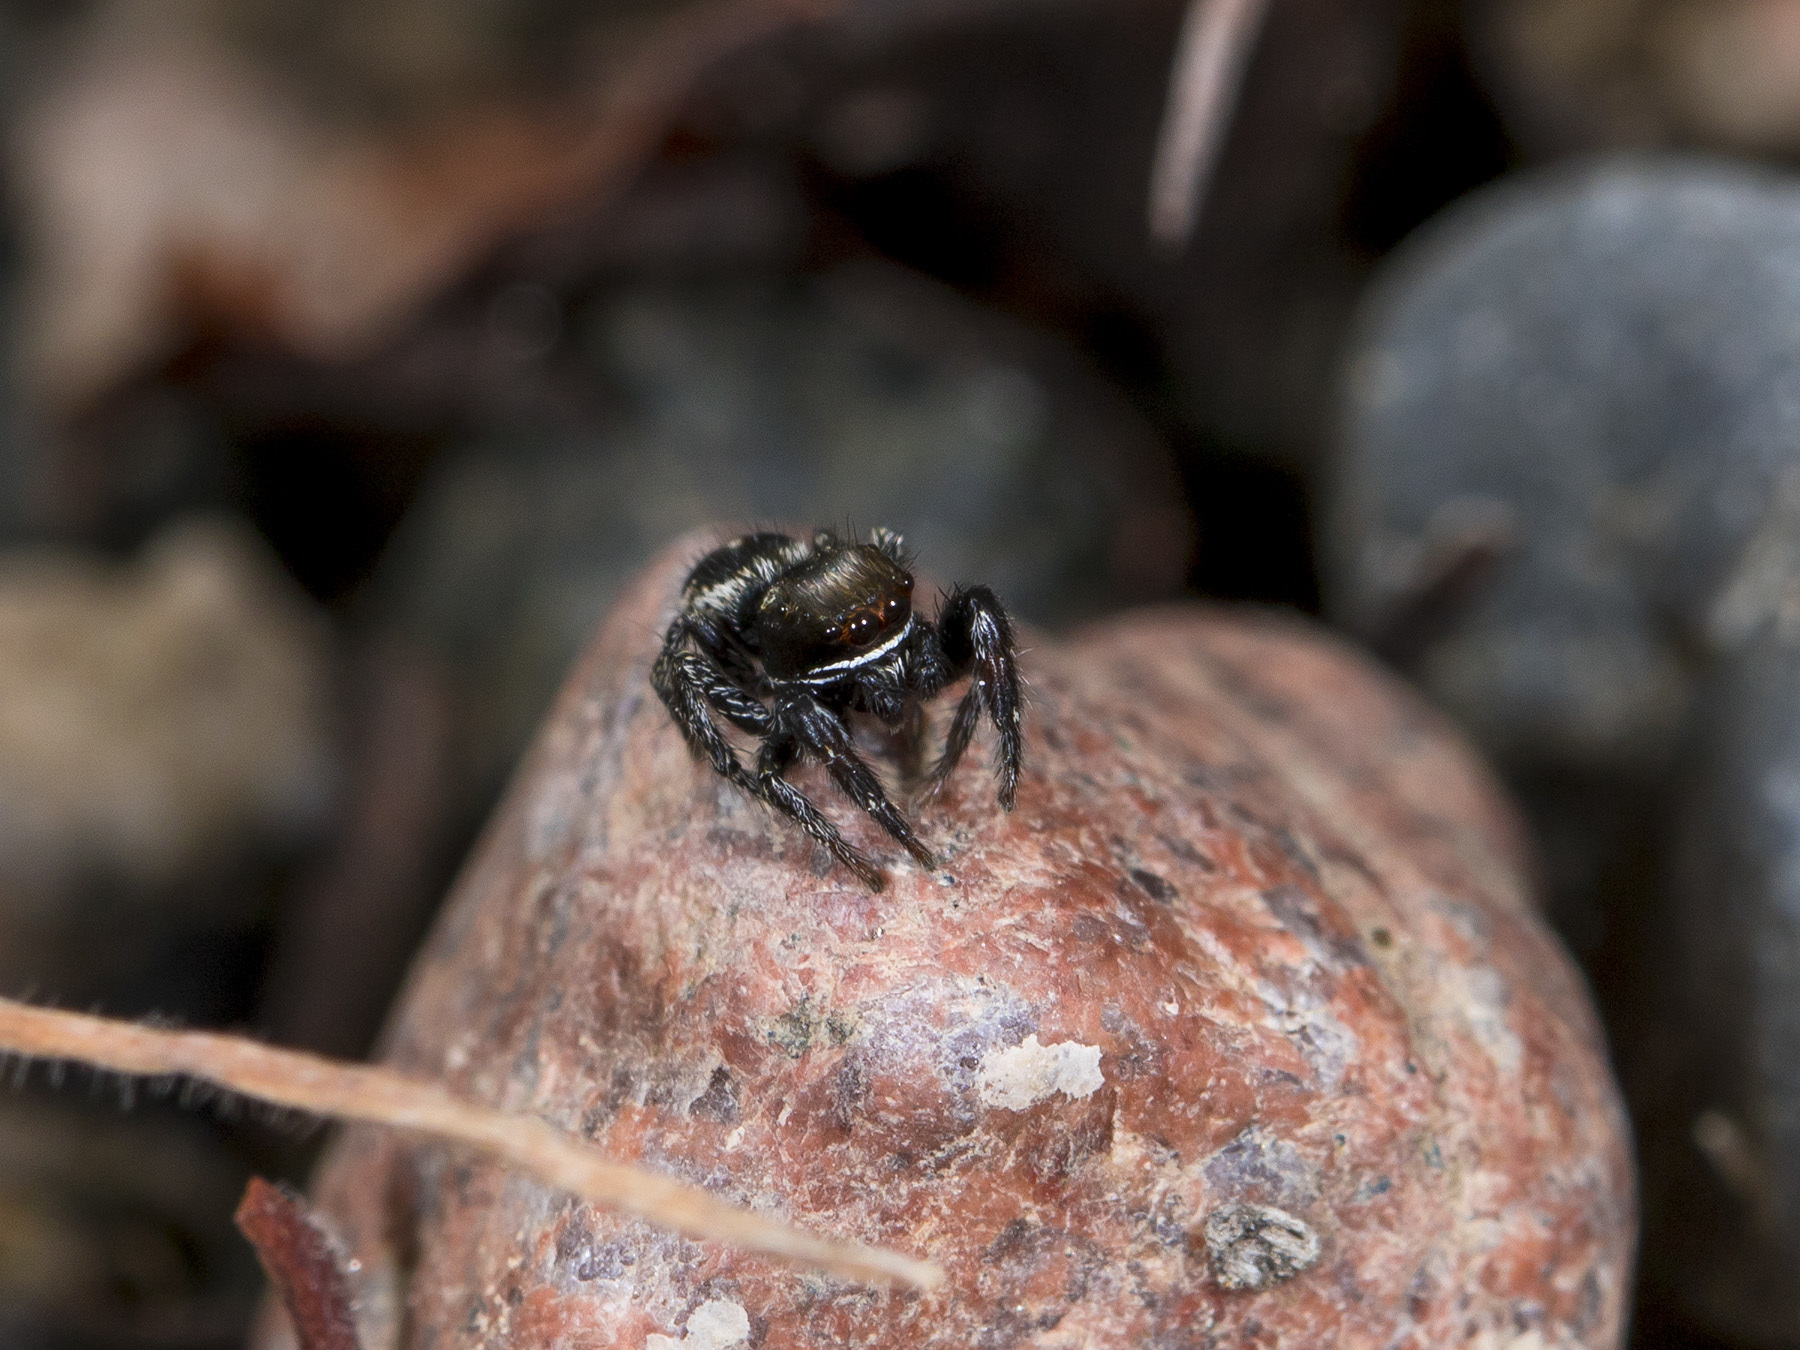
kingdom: Animalia
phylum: Arthropoda
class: Arachnida
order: Araneae
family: Salticidae
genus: Pellenes
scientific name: Pellenes allegrii
